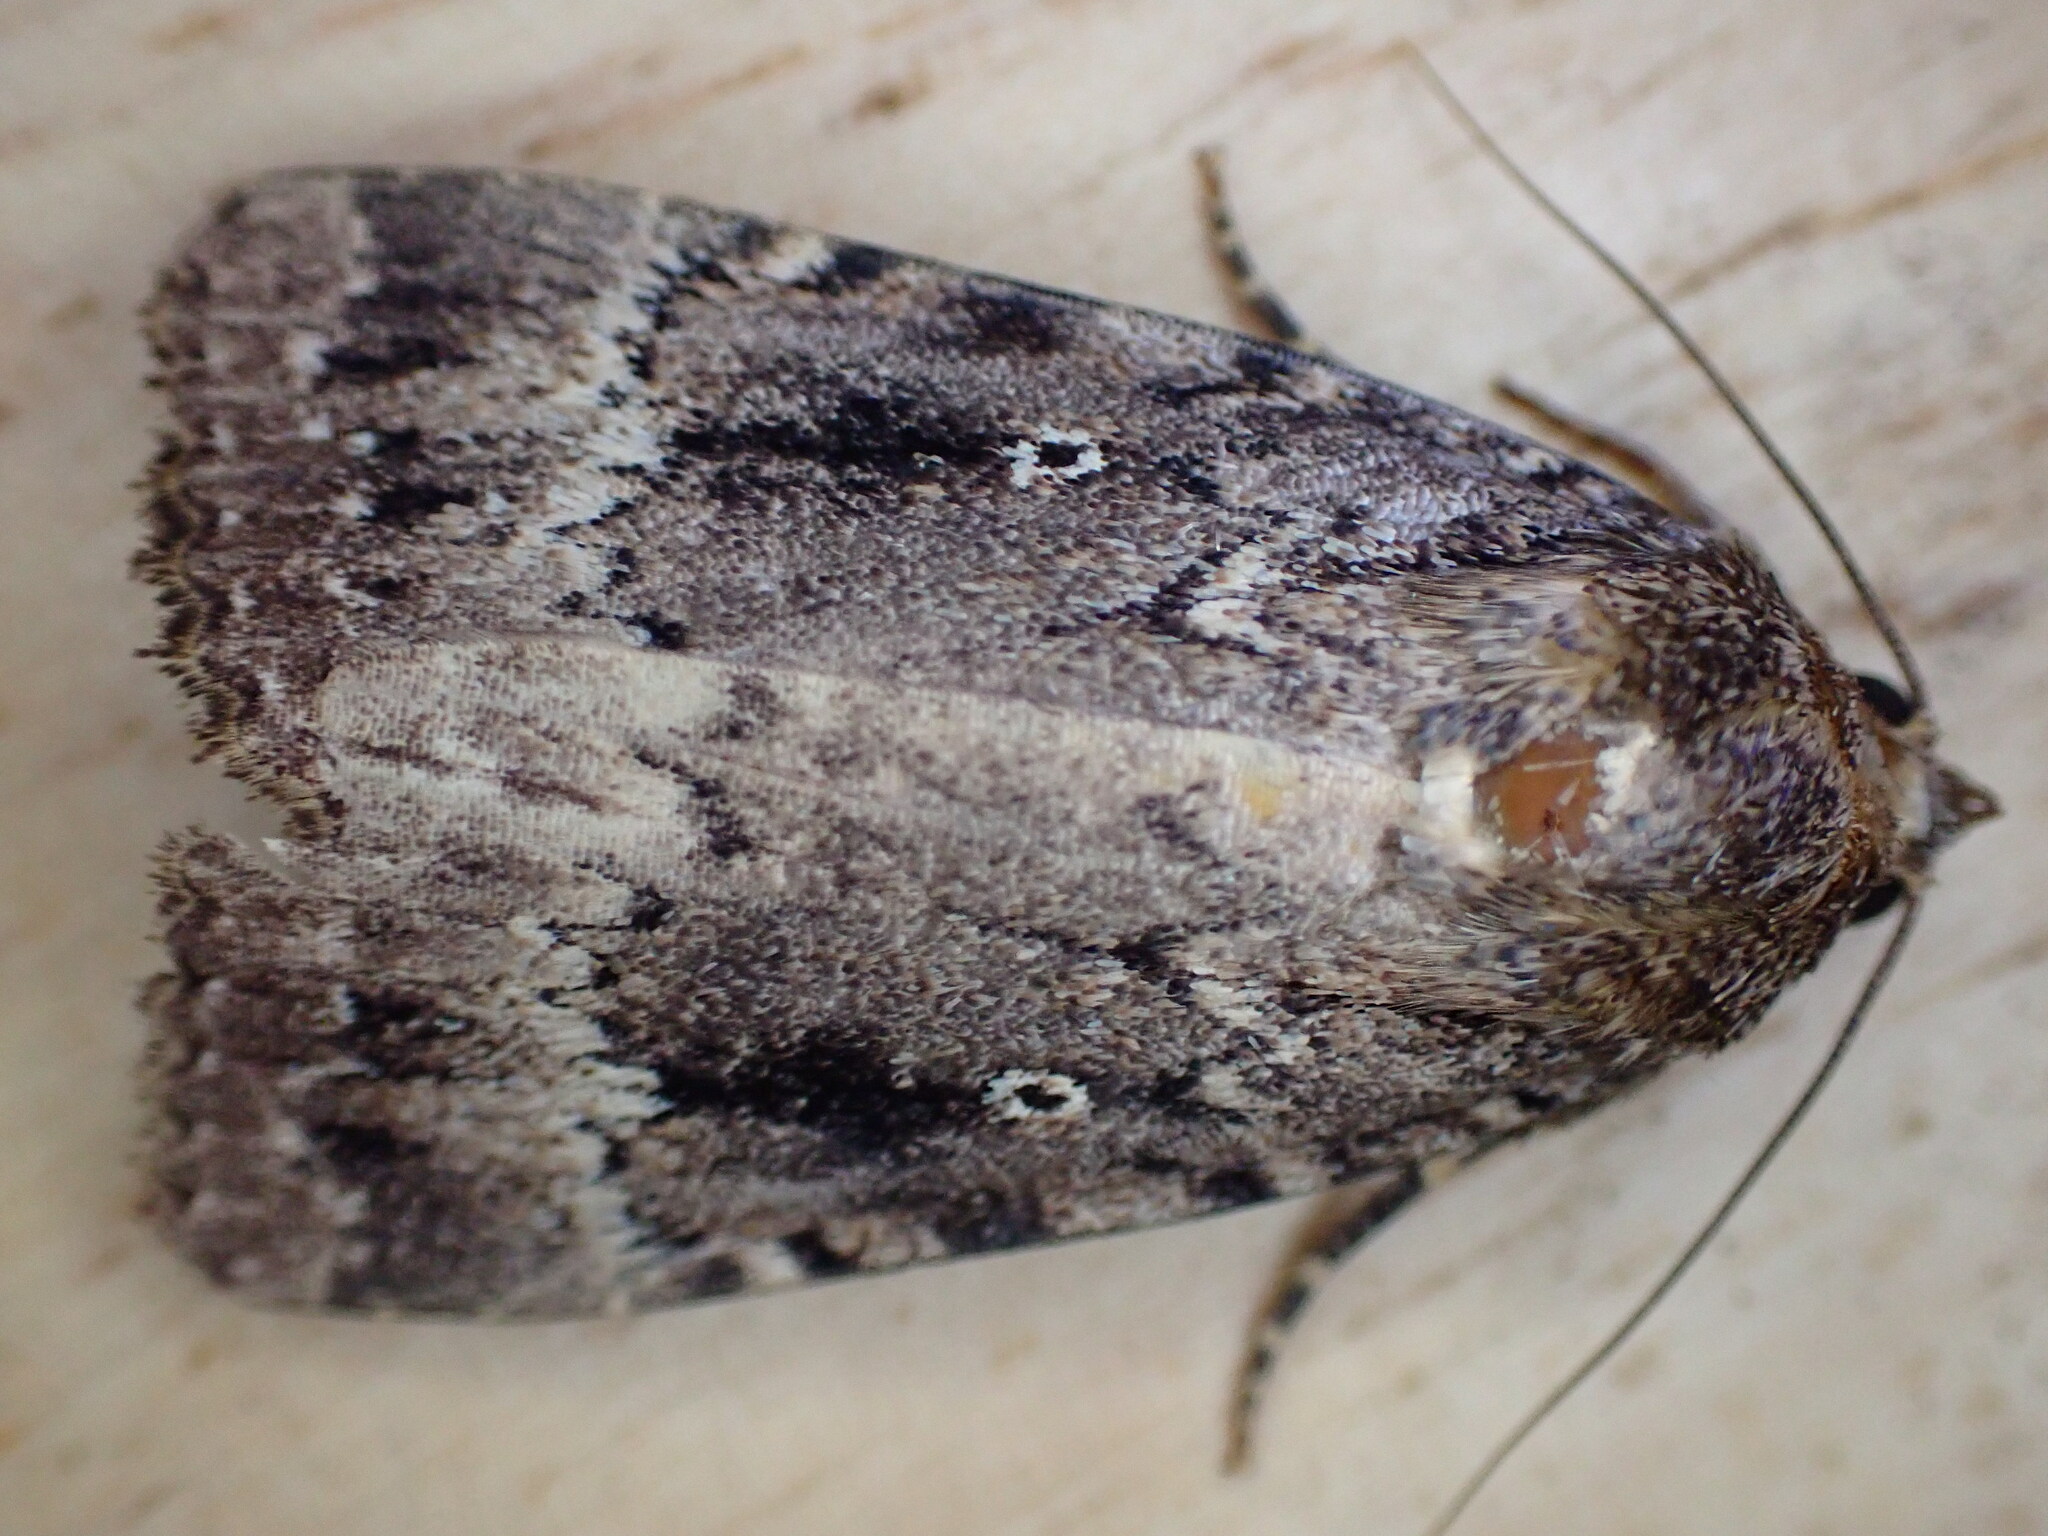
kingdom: Animalia
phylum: Arthropoda
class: Insecta
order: Lepidoptera
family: Noctuidae
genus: Amphipyra
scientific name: Amphipyra
